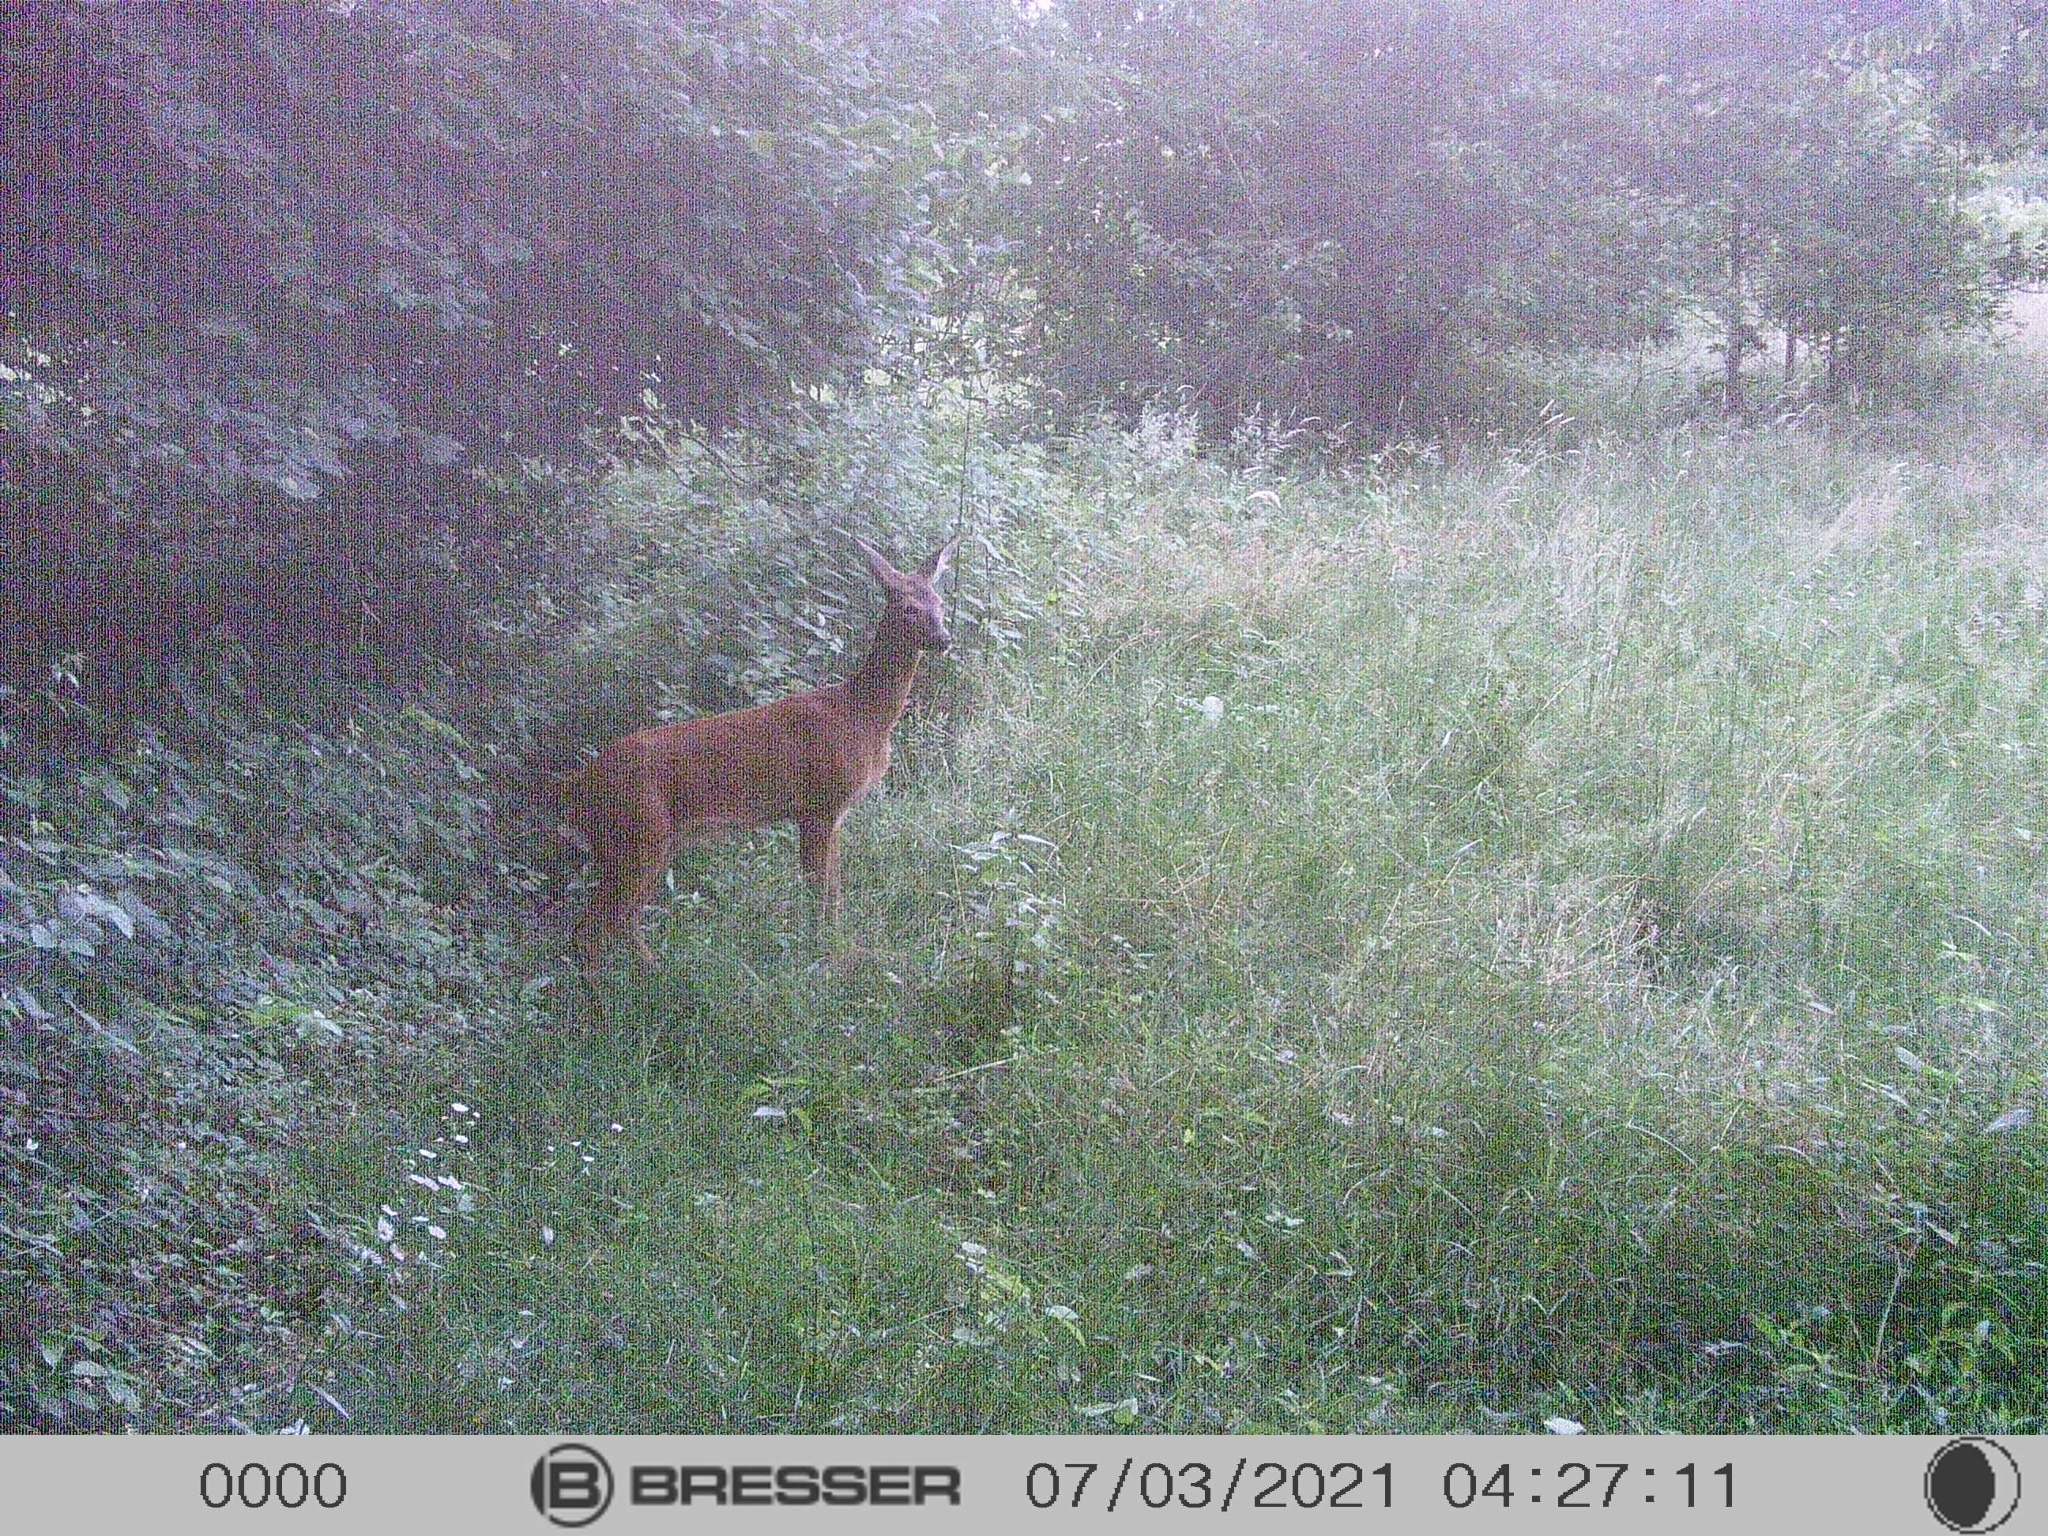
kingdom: Animalia
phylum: Chordata
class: Mammalia
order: Artiodactyla
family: Cervidae
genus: Capreolus
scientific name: Capreolus capreolus
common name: Western roe deer
